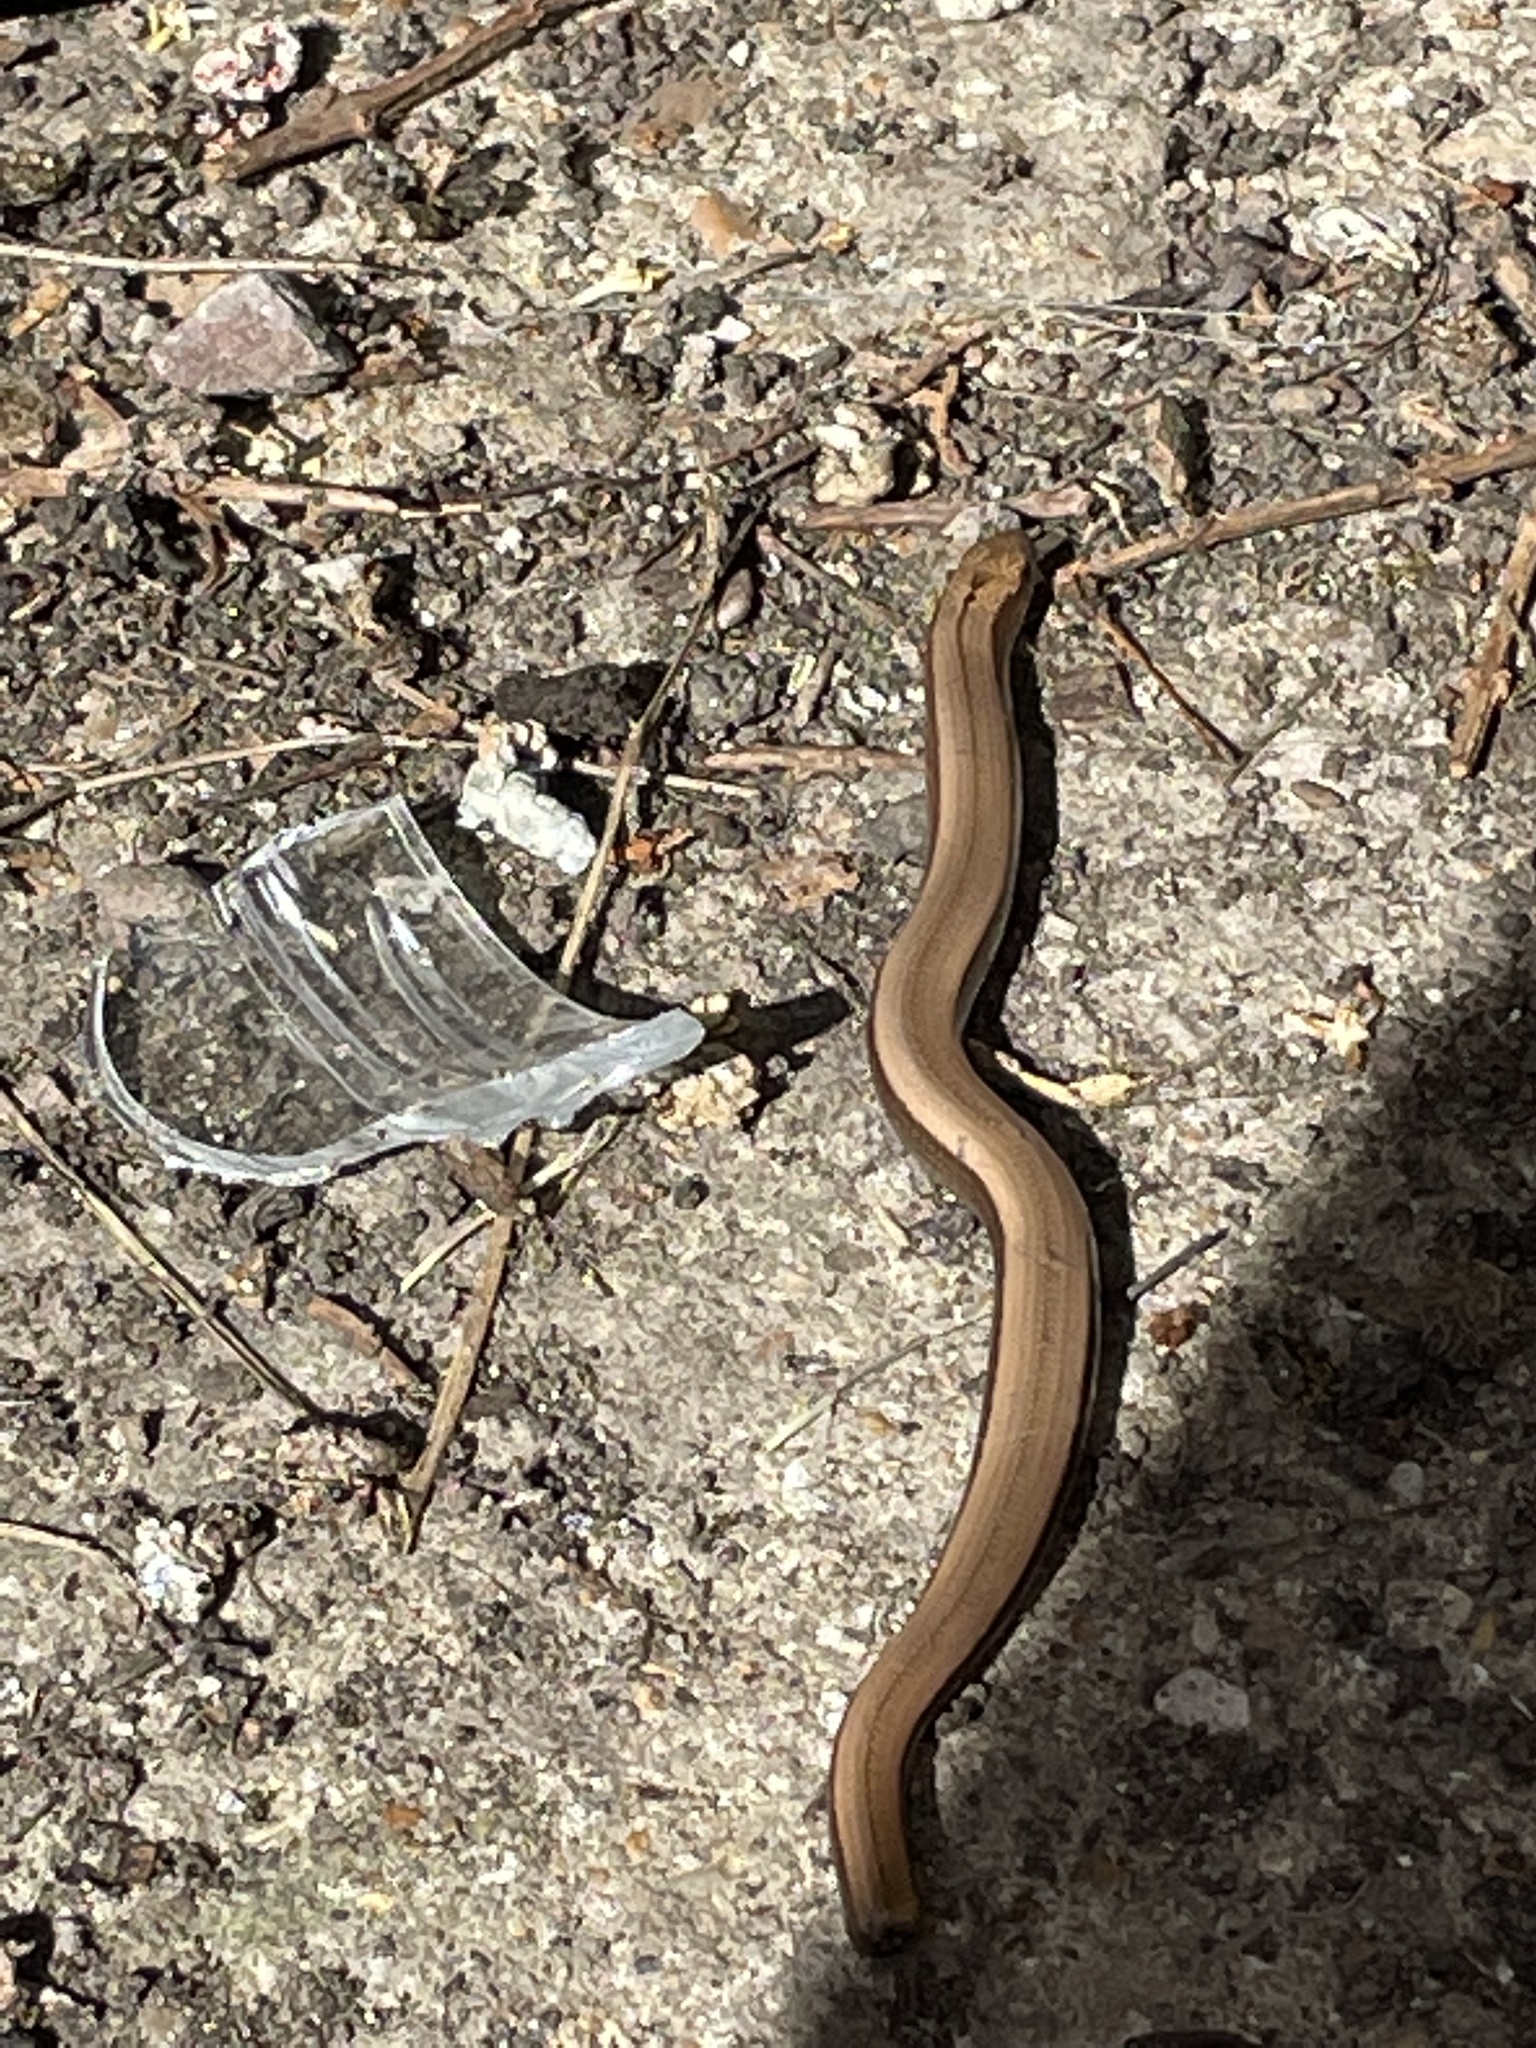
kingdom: Animalia
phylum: Chordata
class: Squamata
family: Anguidae
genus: Anguis
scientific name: Anguis fragilis
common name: Slow worm
